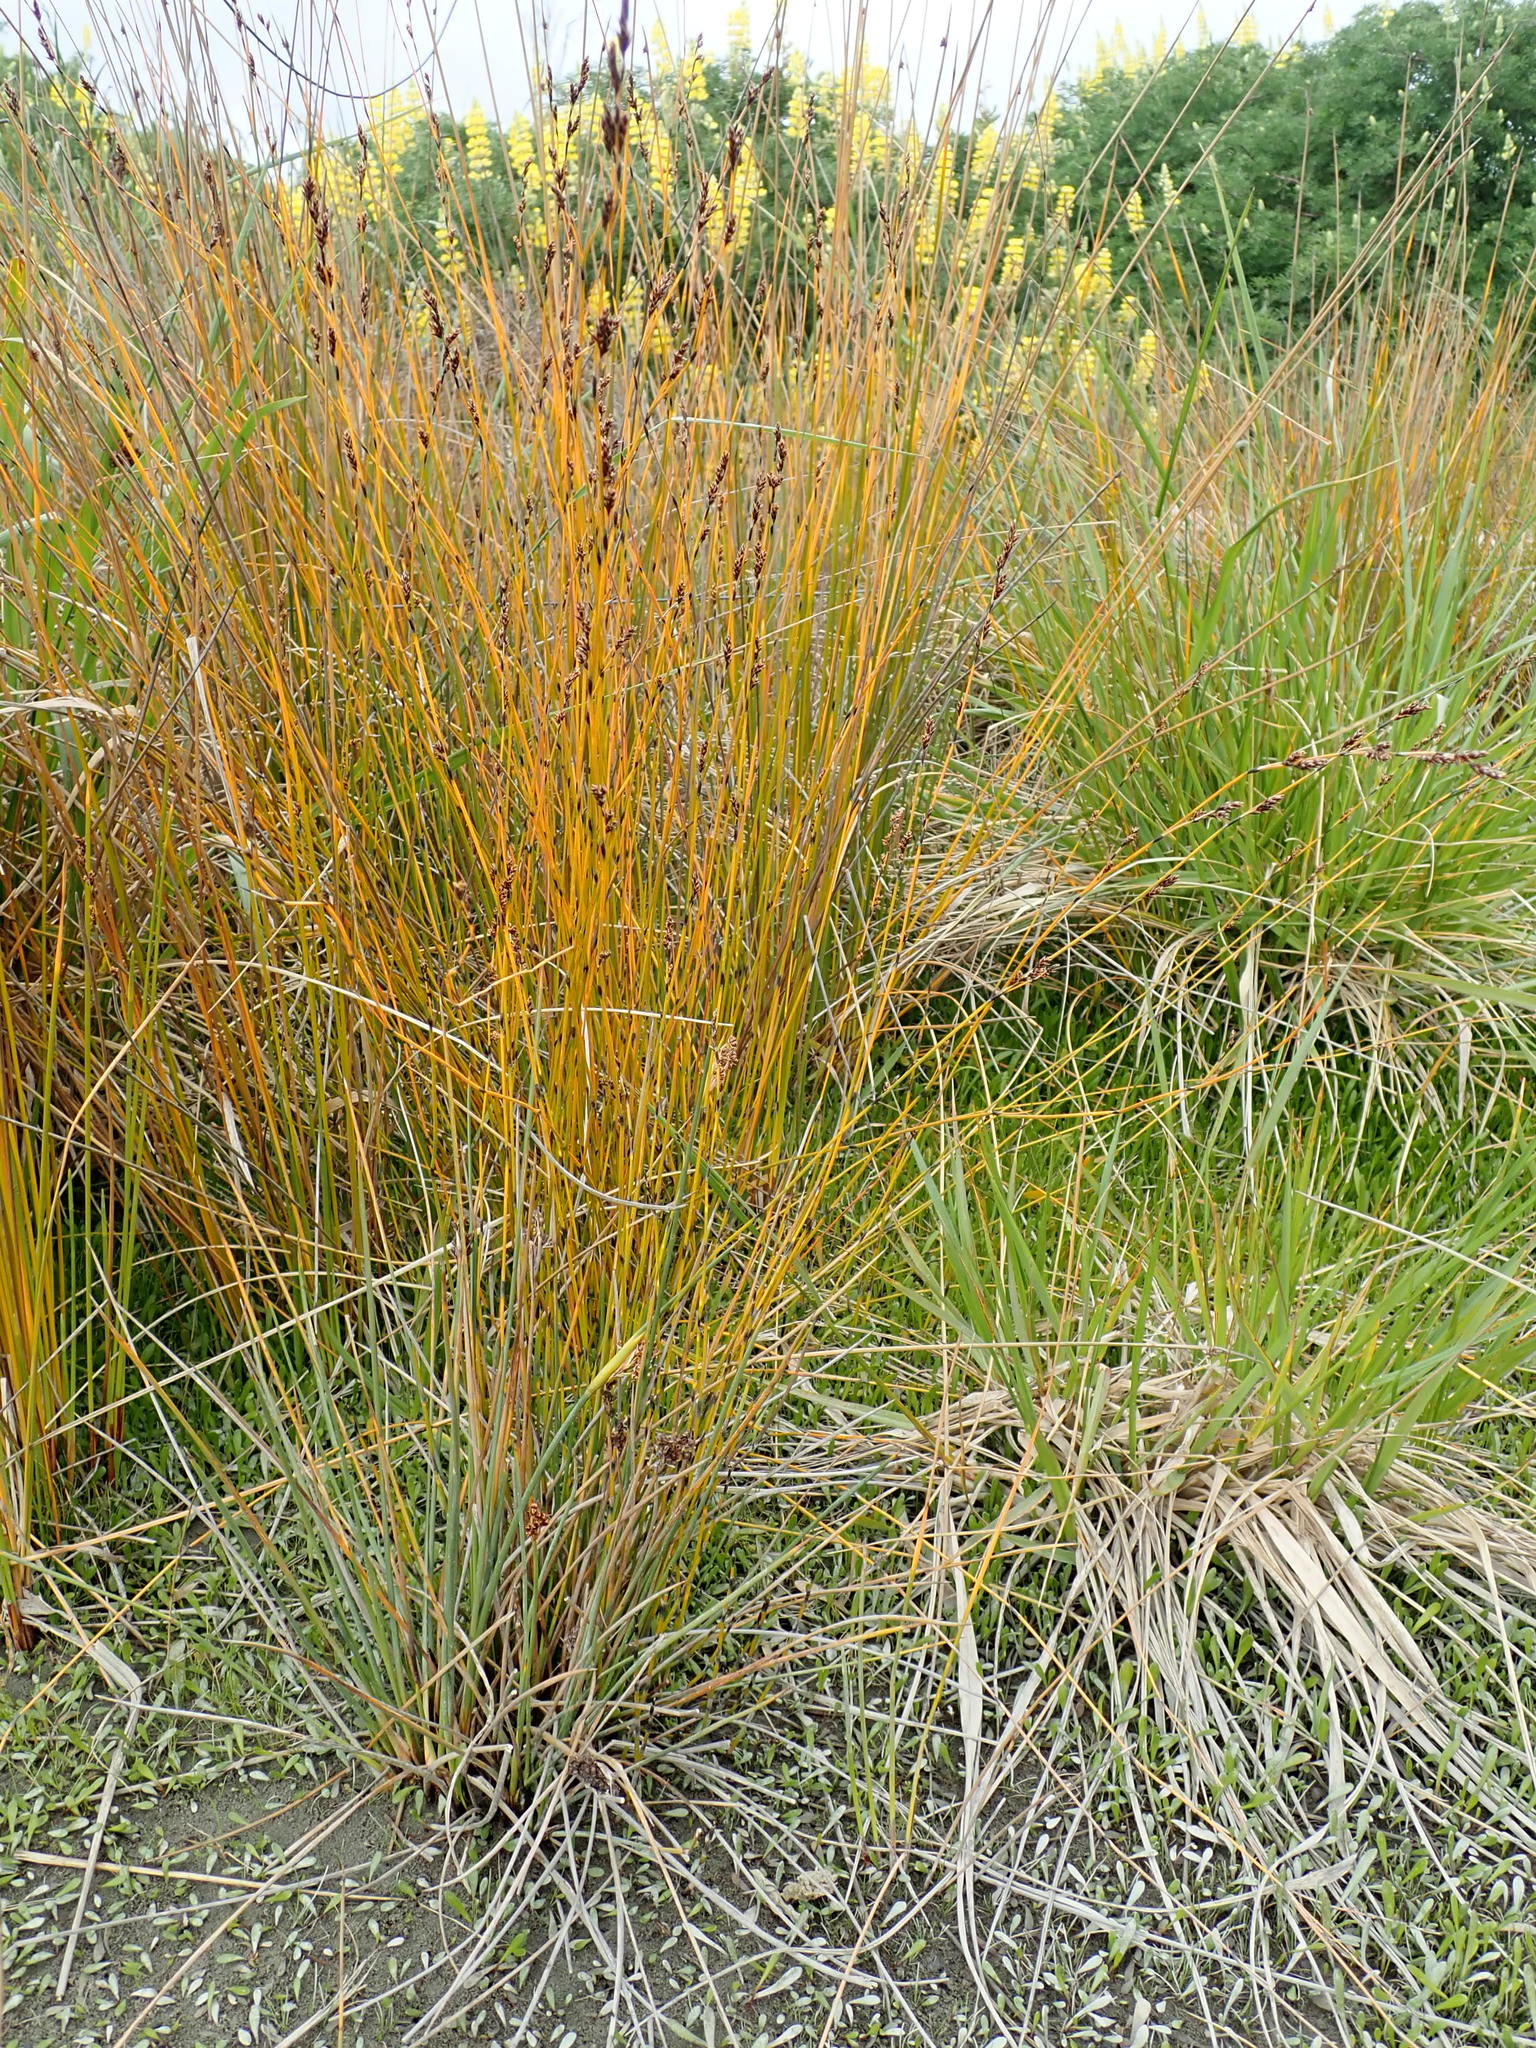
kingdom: Plantae
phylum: Tracheophyta
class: Liliopsida
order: Poales
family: Restionaceae
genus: Apodasmia
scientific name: Apodasmia similis
